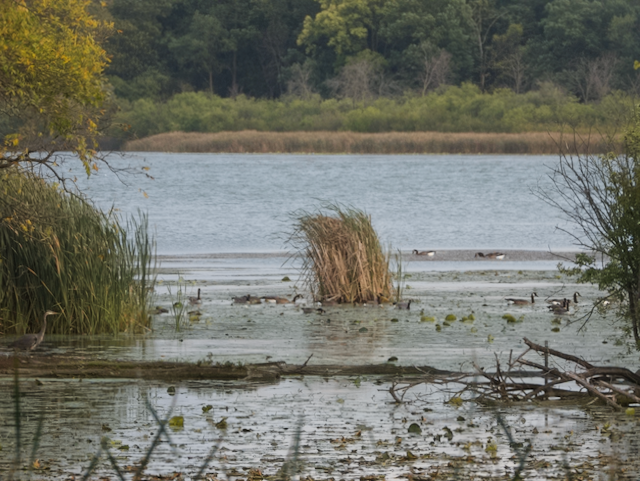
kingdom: Animalia
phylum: Chordata
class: Aves
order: Anseriformes
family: Anatidae
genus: Branta
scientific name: Branta canadensis
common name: Canada goose
